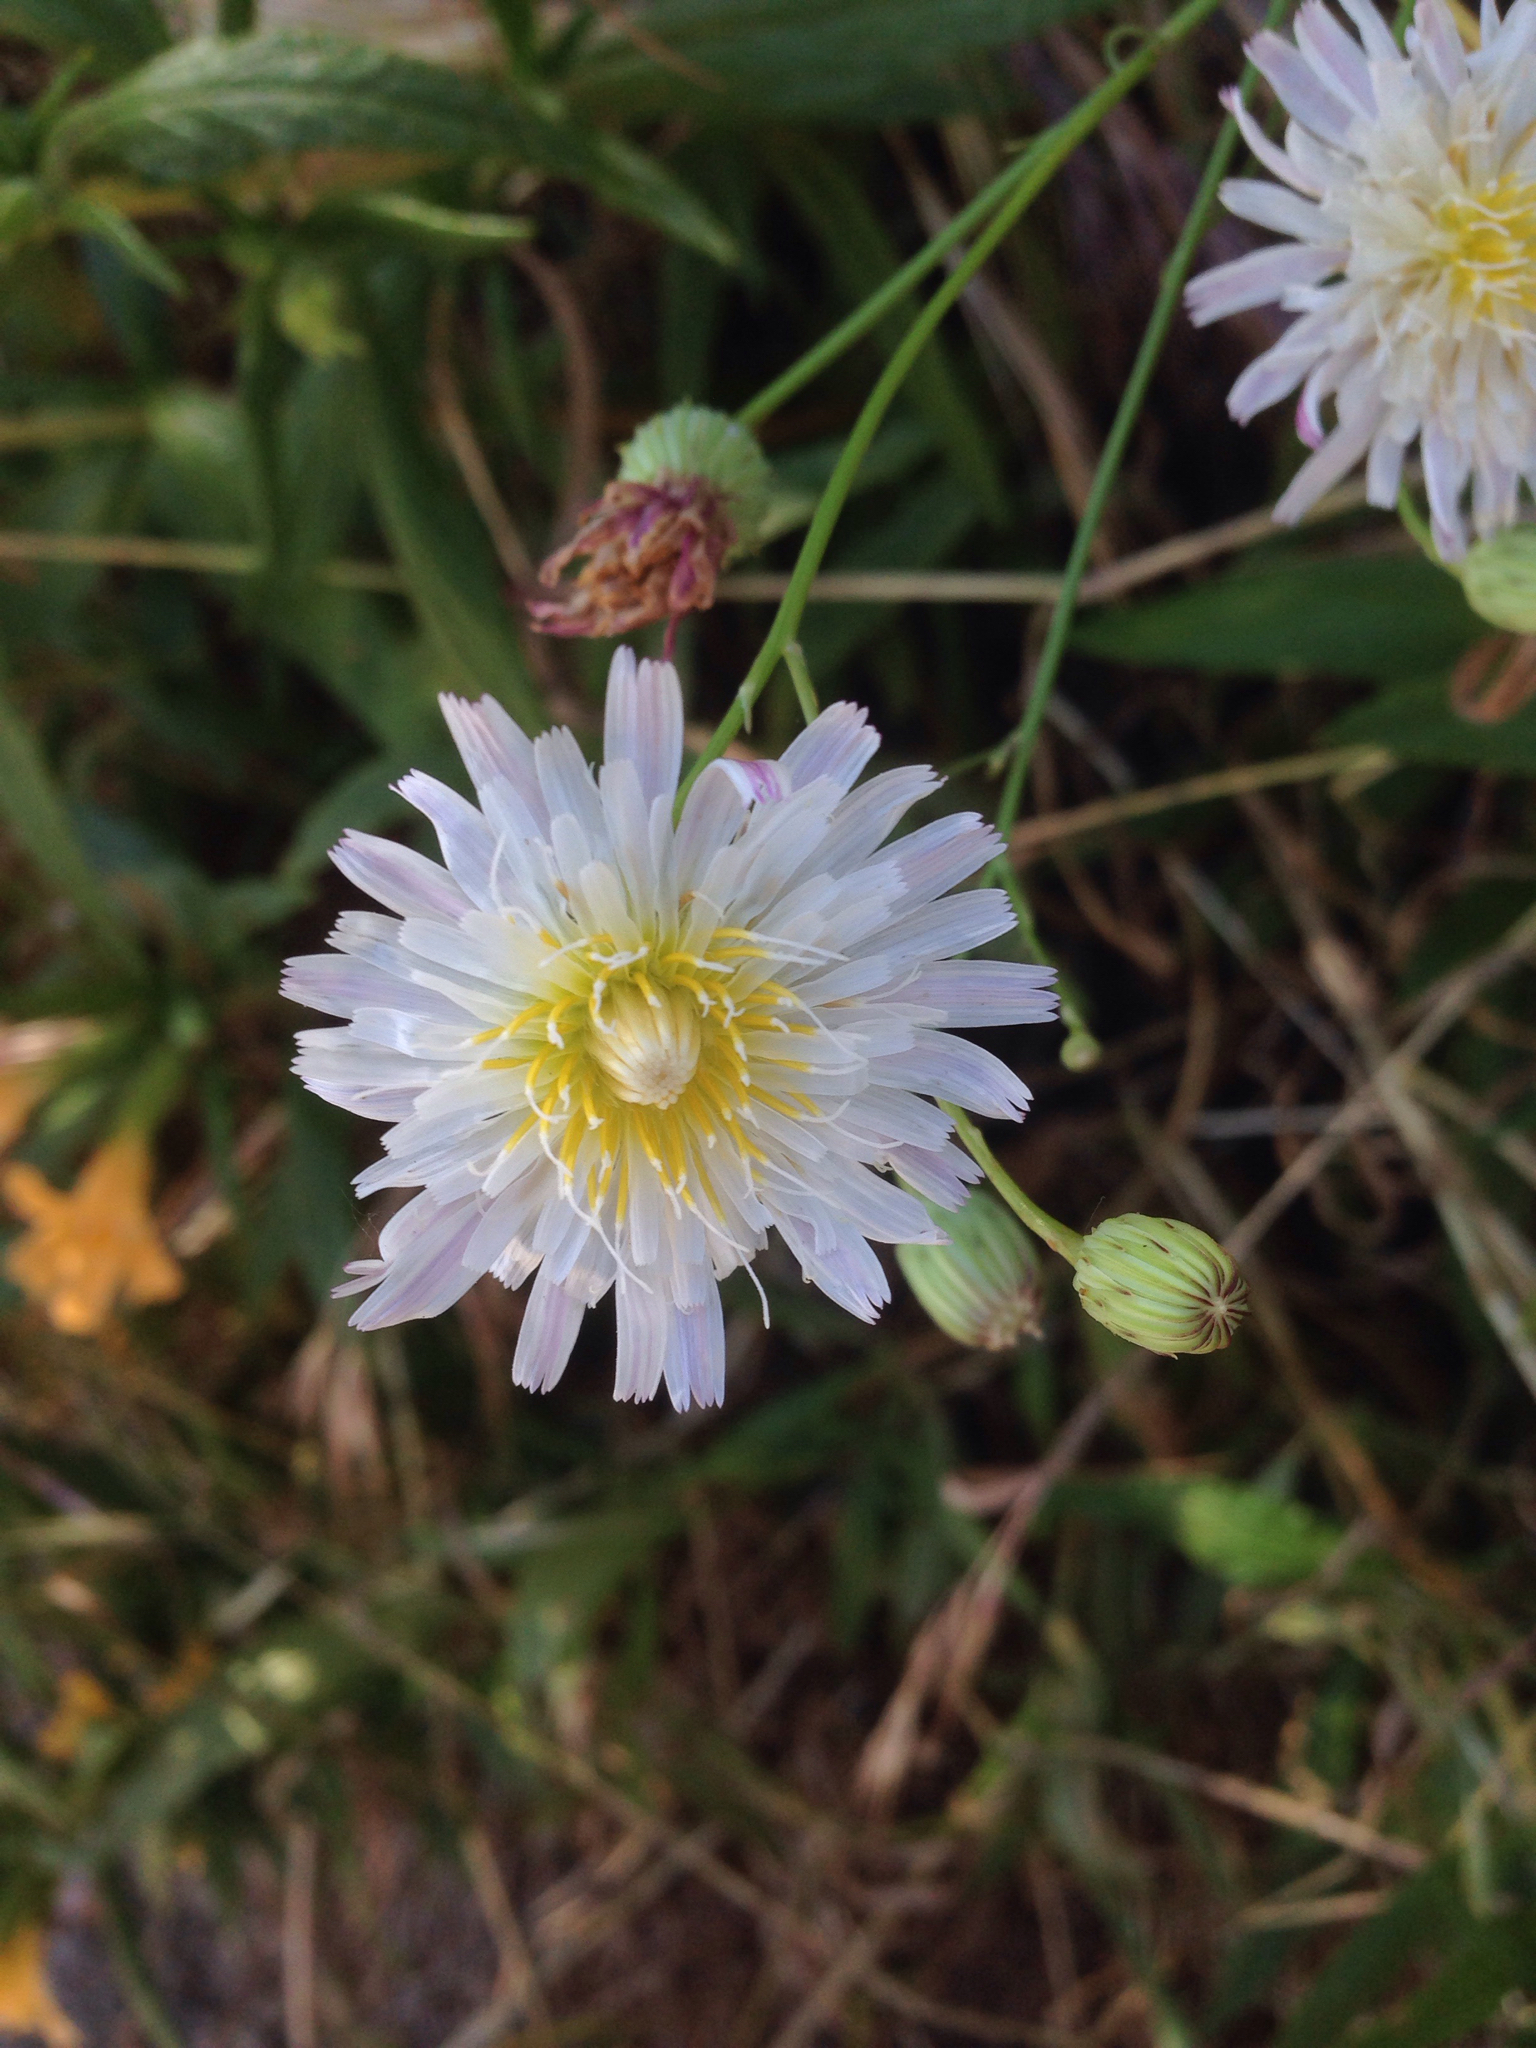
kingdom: Plantae
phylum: Tracheophyta
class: Magnoliopsida
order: Asterales
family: Asteraceae
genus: Malacothrix
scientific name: Malacothrix saxatilis
